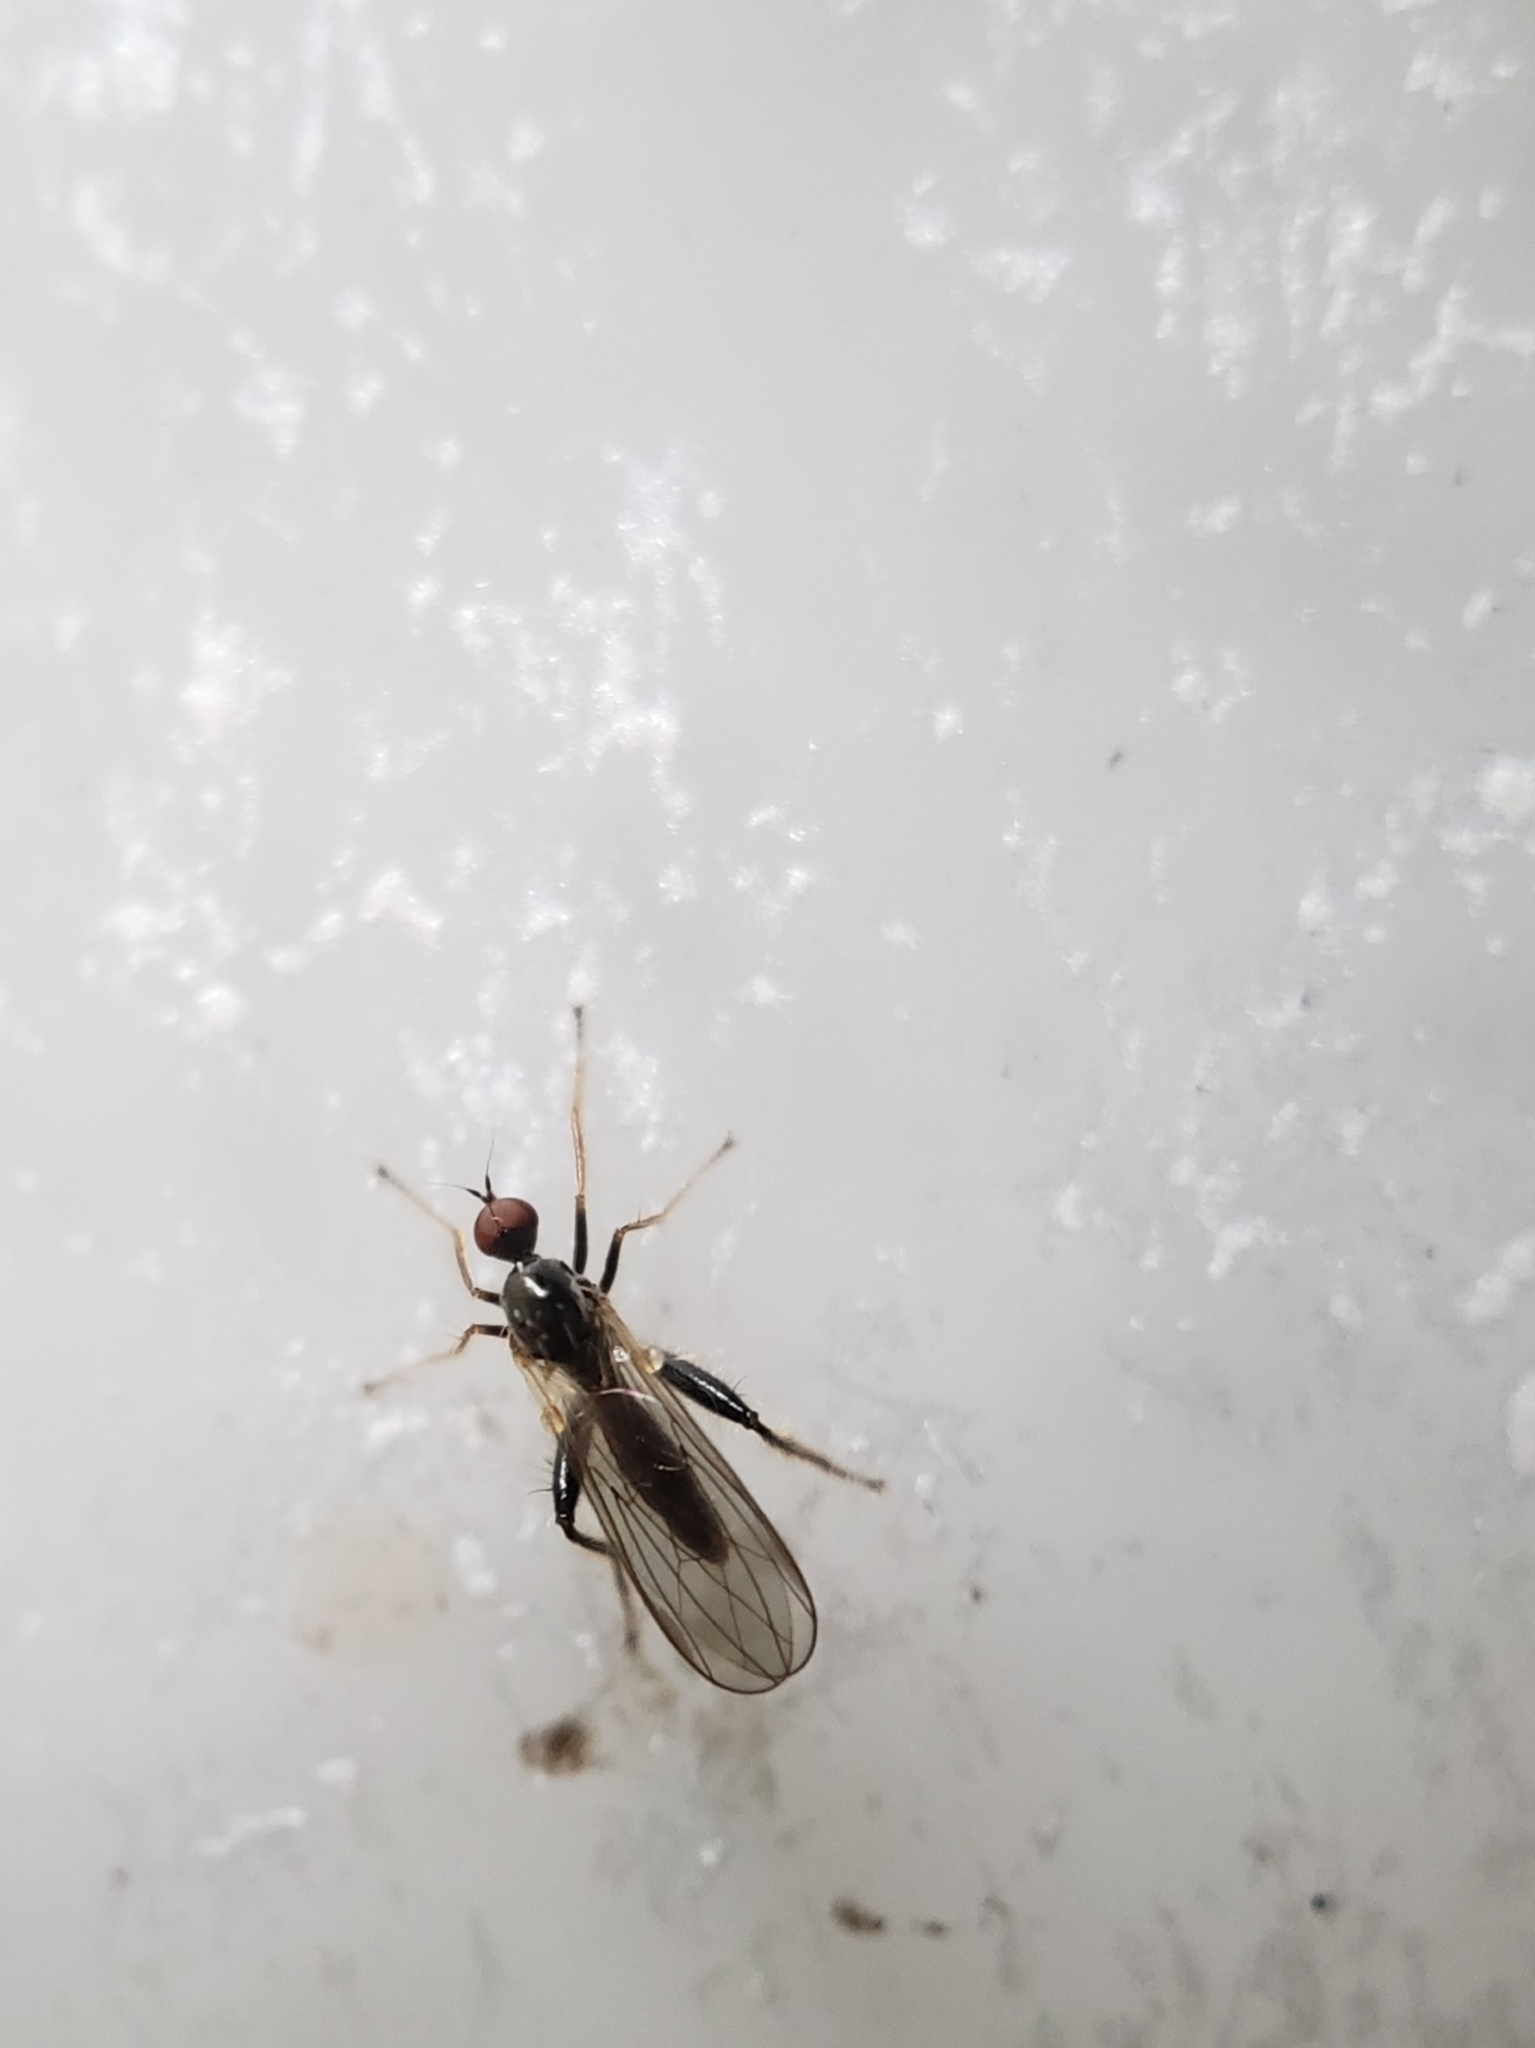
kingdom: Animalia
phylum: Arthropoda
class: Insecta
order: Diptera
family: Hybotidae
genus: Hybos
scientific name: Hybos reversus
